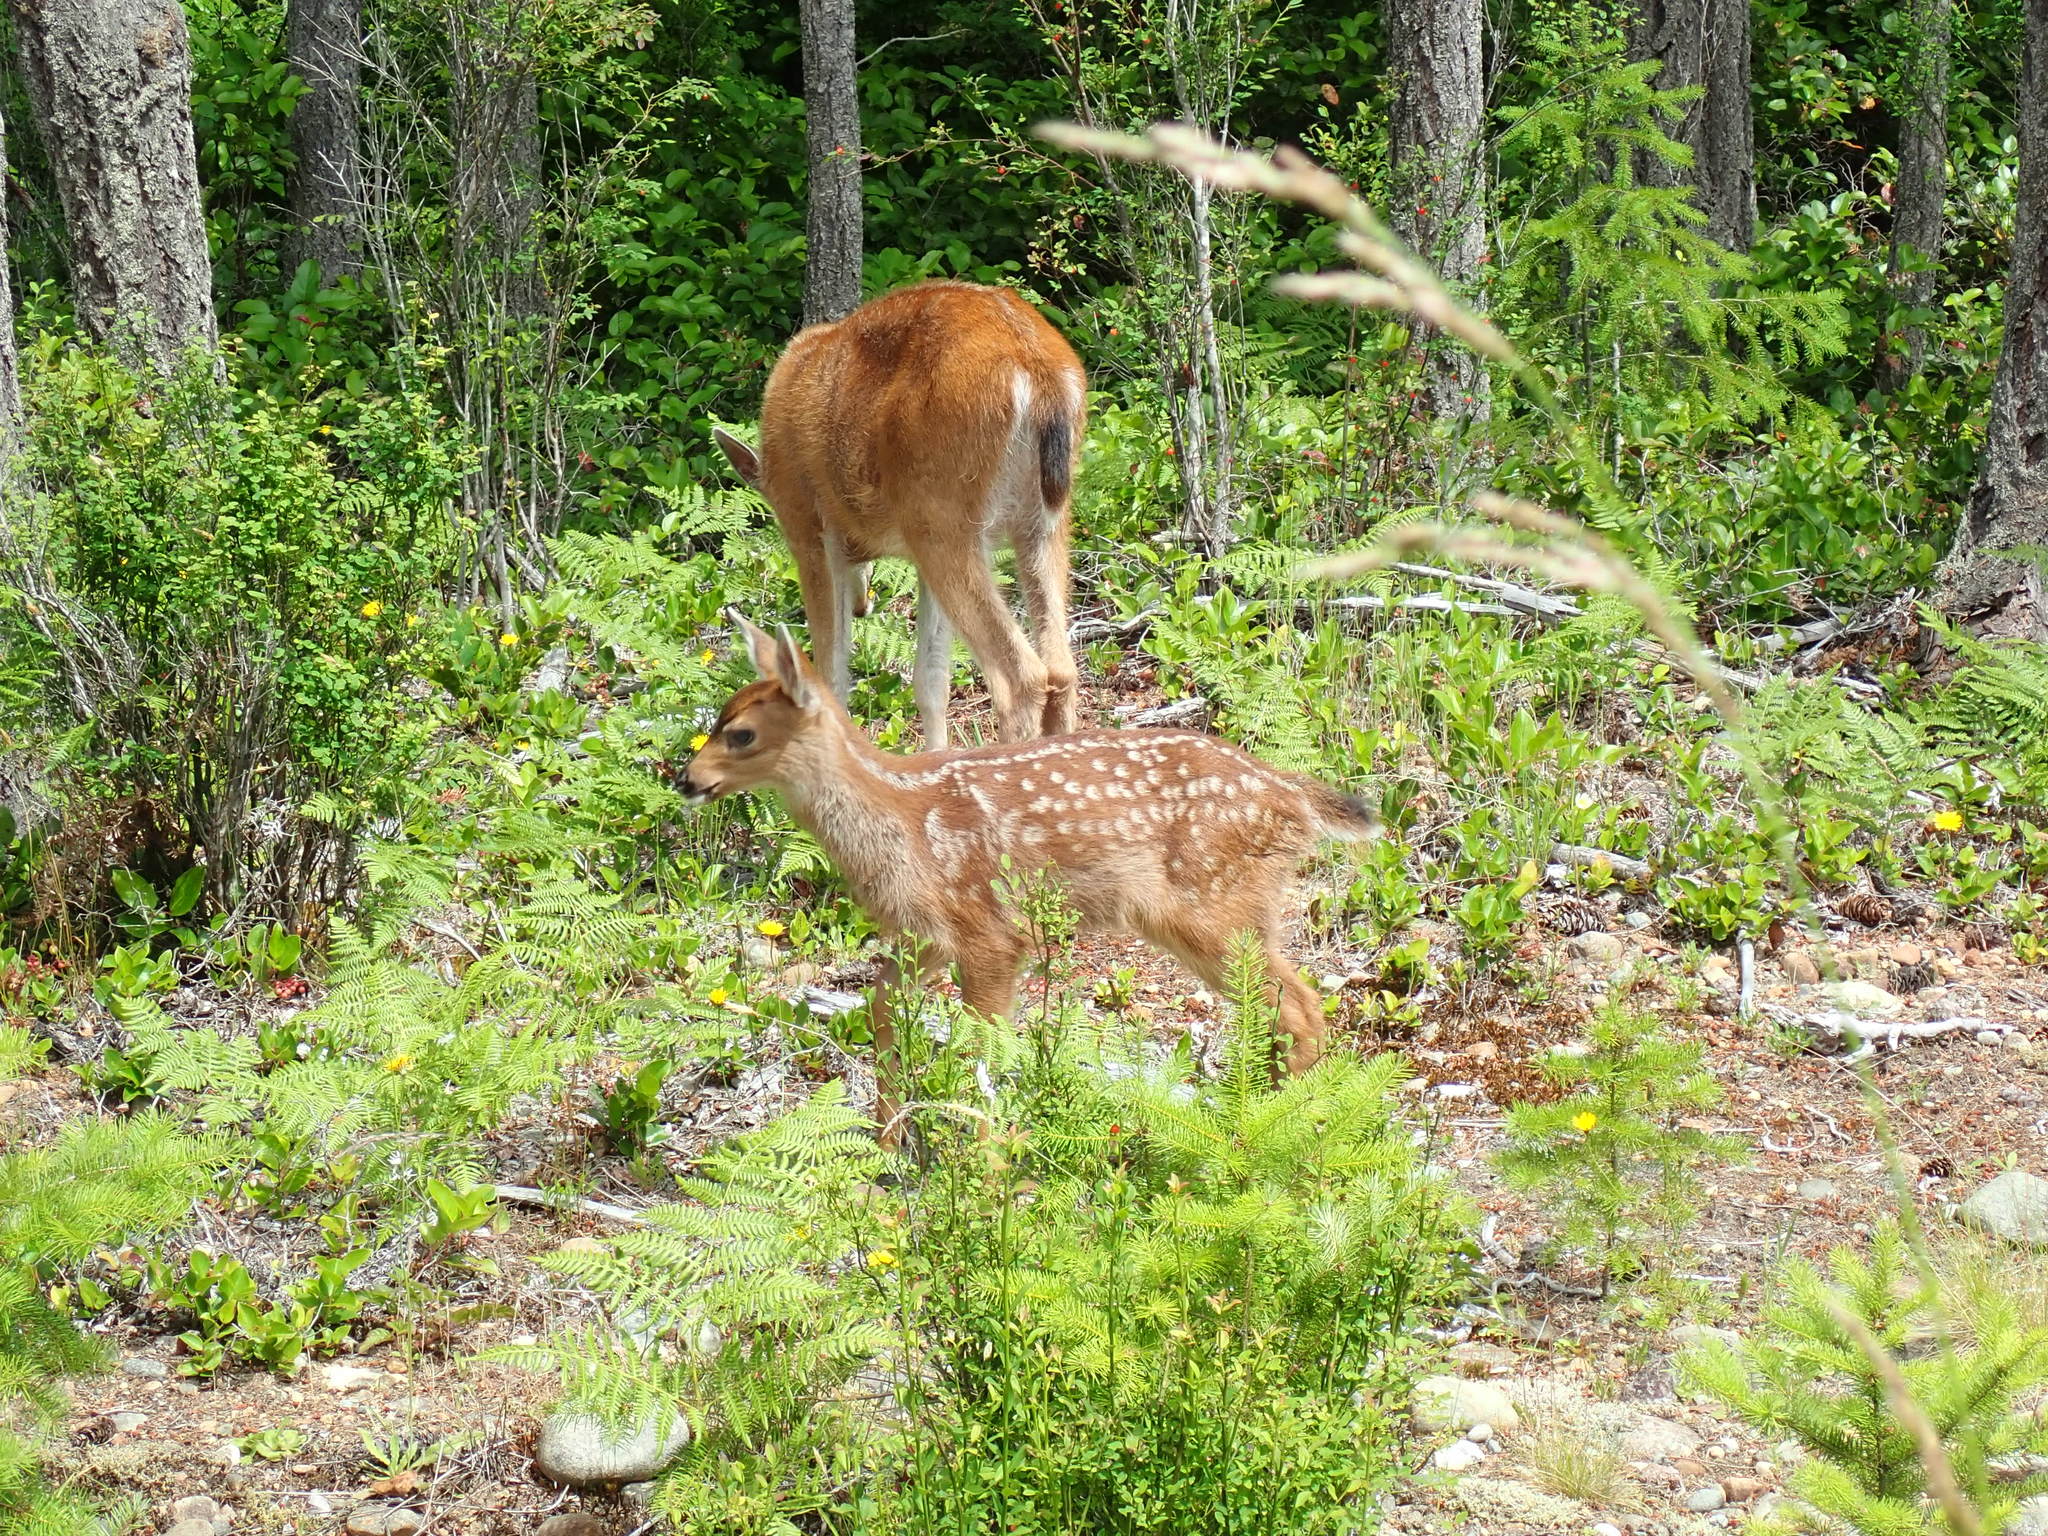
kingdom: Animalia
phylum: Chordata
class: Mammalia
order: Artiodactyla
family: Cervidae
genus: Odocoileus
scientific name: Odocoileus hemionus
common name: Mule deer
